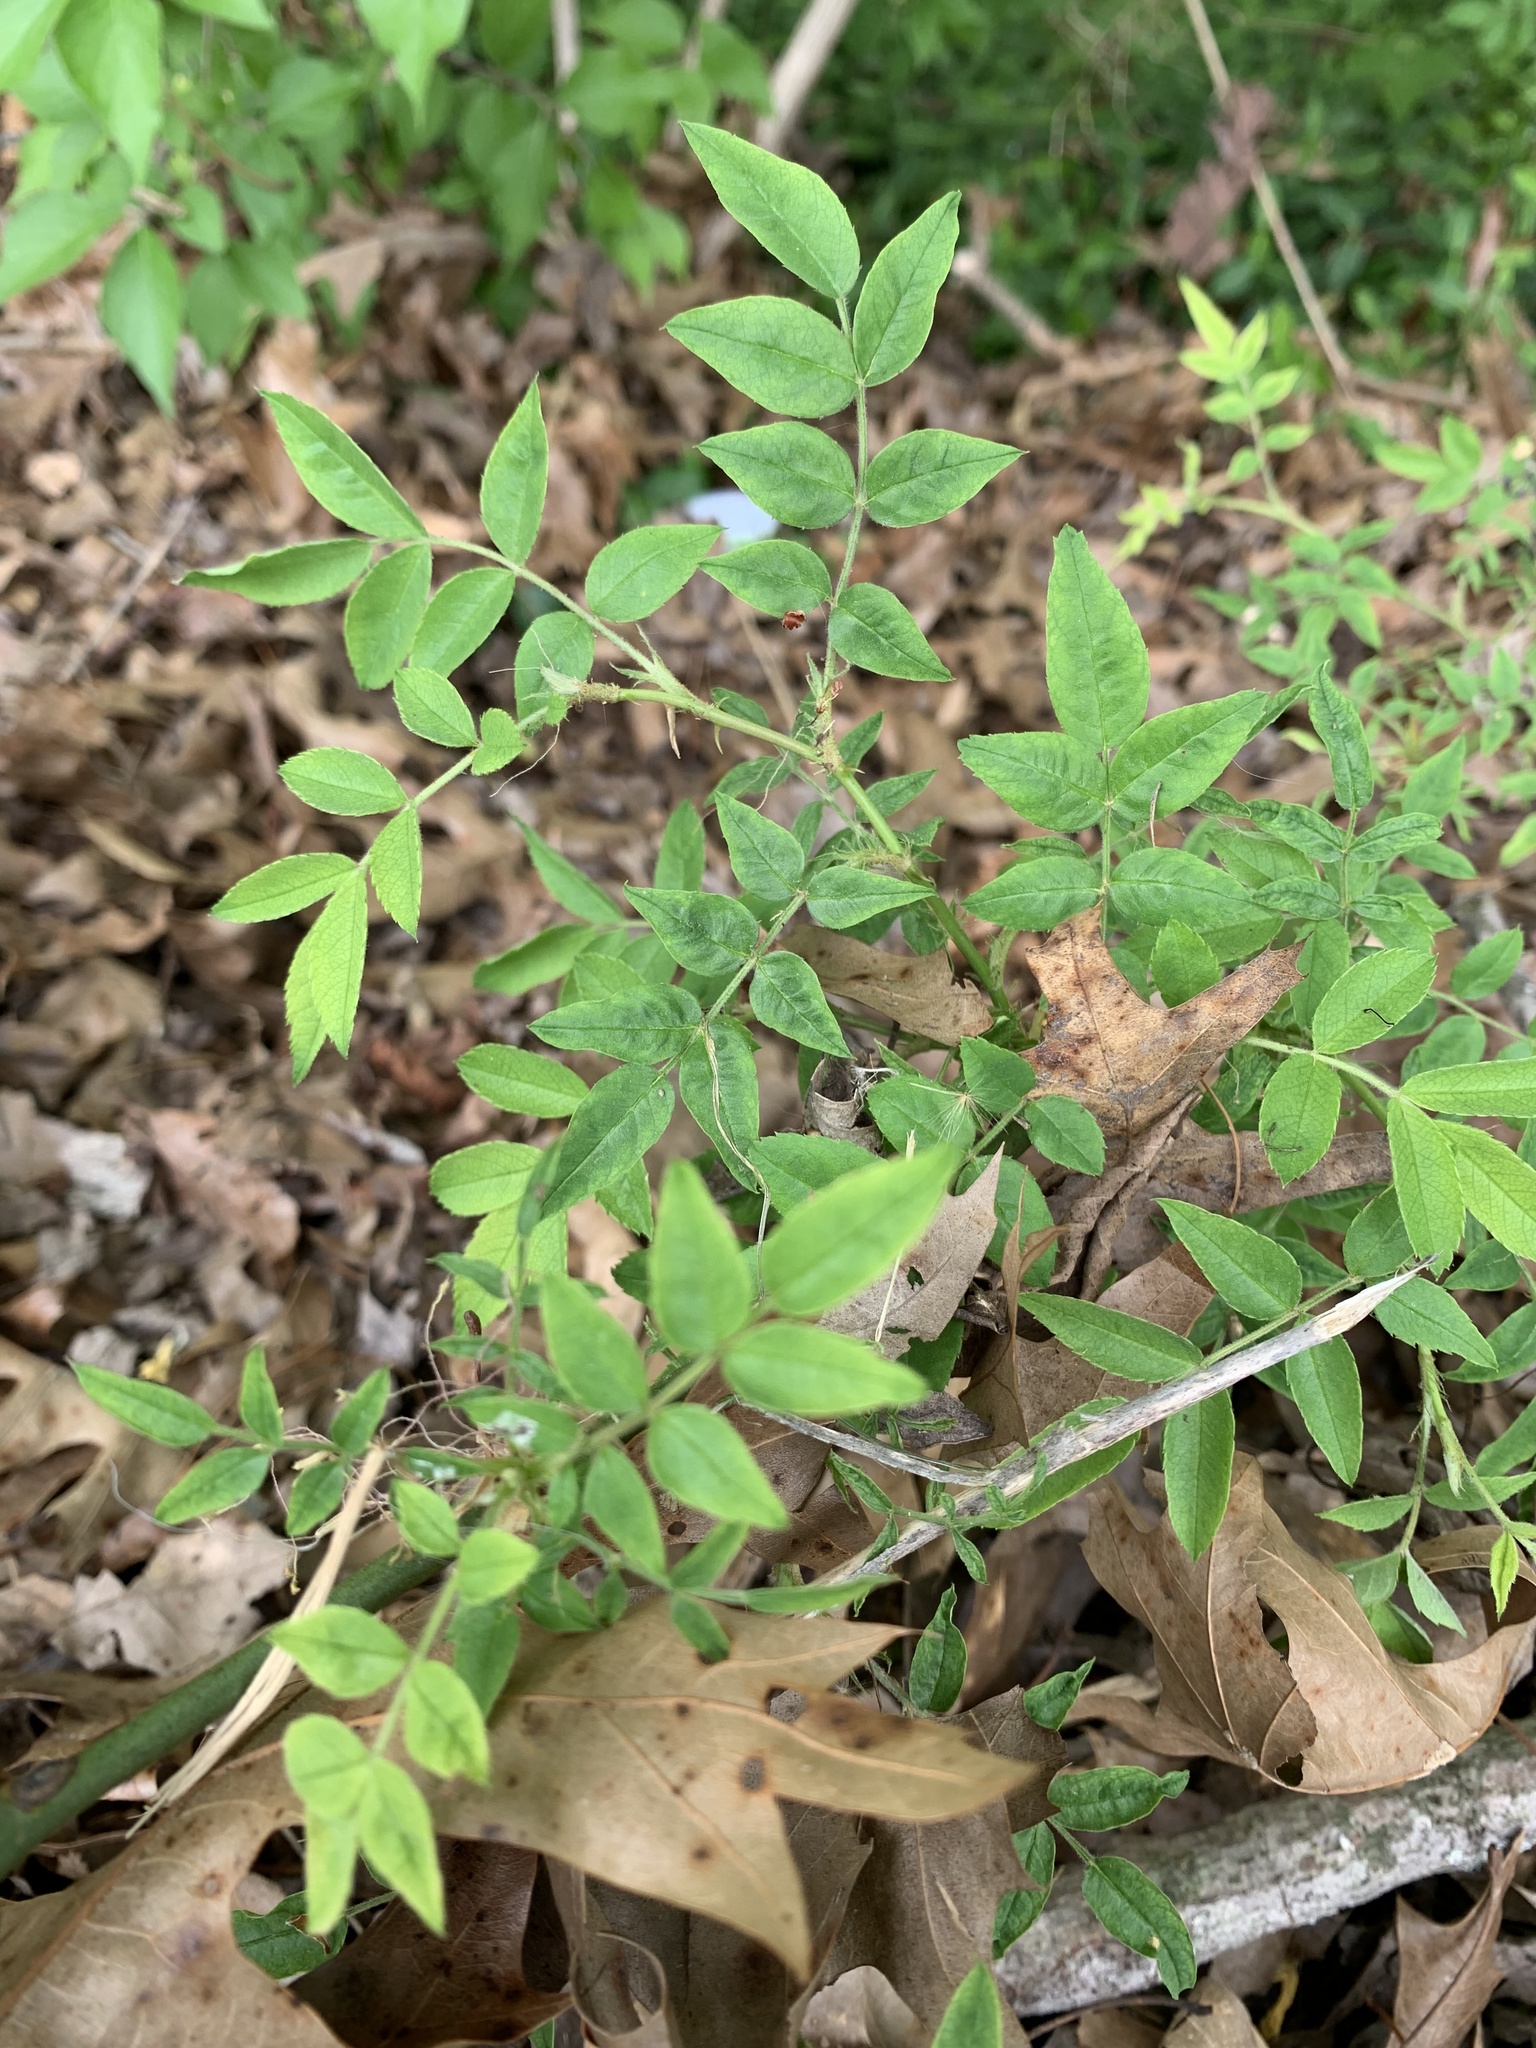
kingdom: Plantae
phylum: Tracheophyta
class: Magnoliopsida
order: Rosales
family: Rosaceae
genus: Rosa
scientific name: Rosa multiflora
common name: Multiflora rose
